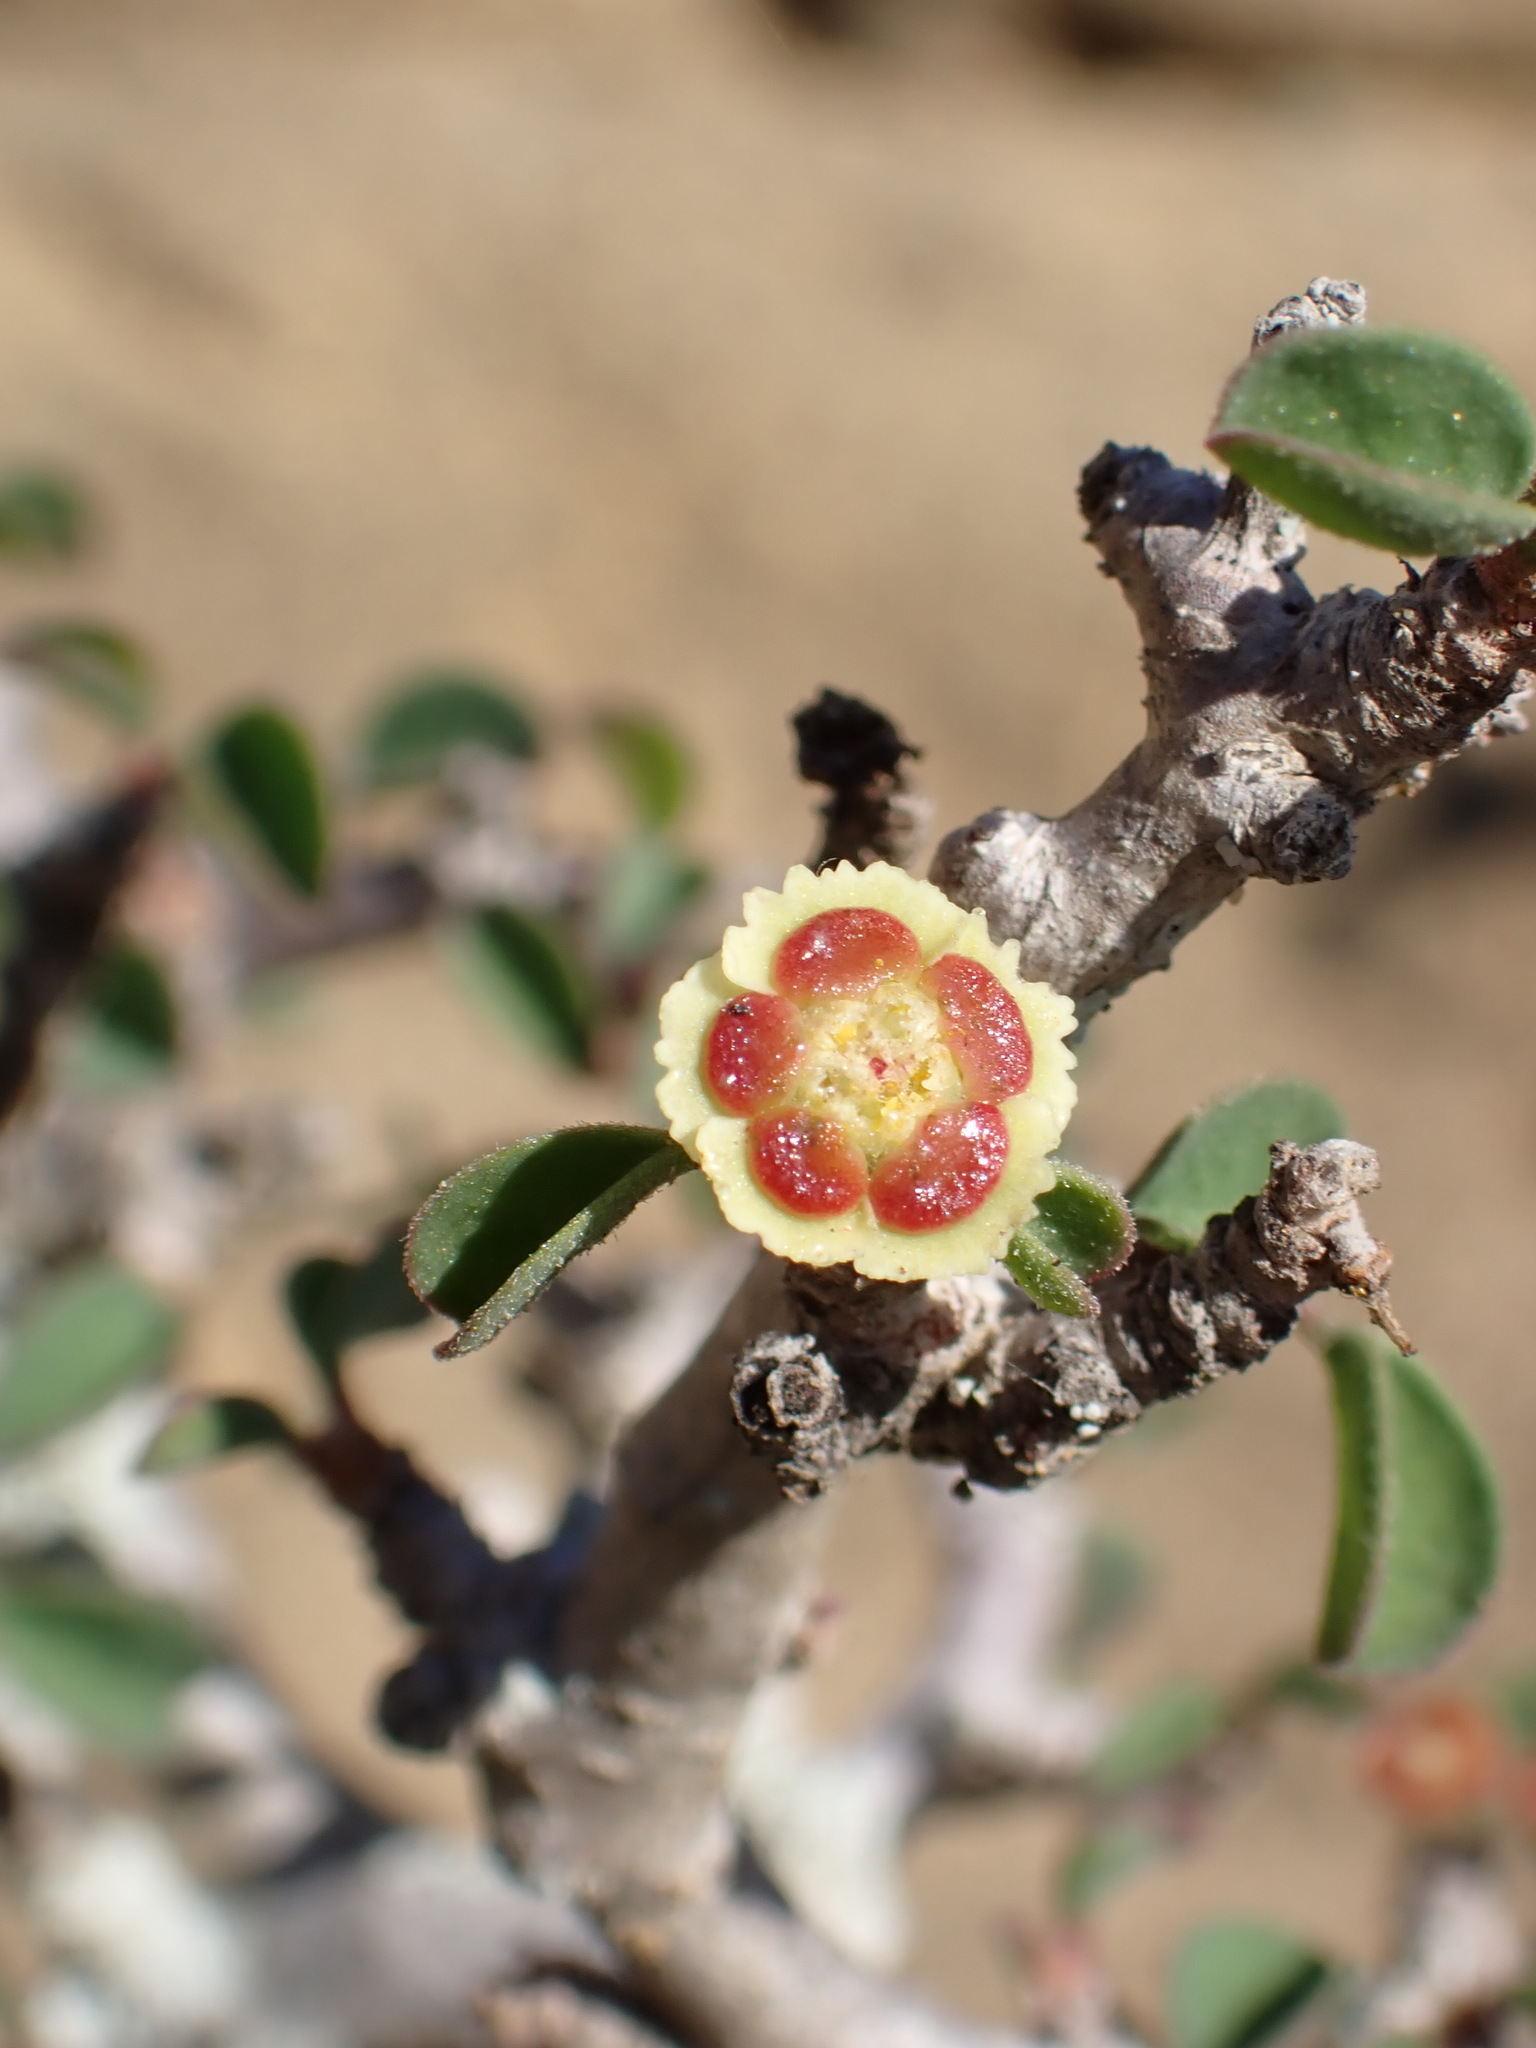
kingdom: Plantae
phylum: Tracheophyta
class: Magnoliopsida
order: Malpighiales
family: Euphorbiaceae
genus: Euphorbia
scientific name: Euphorbia misera
